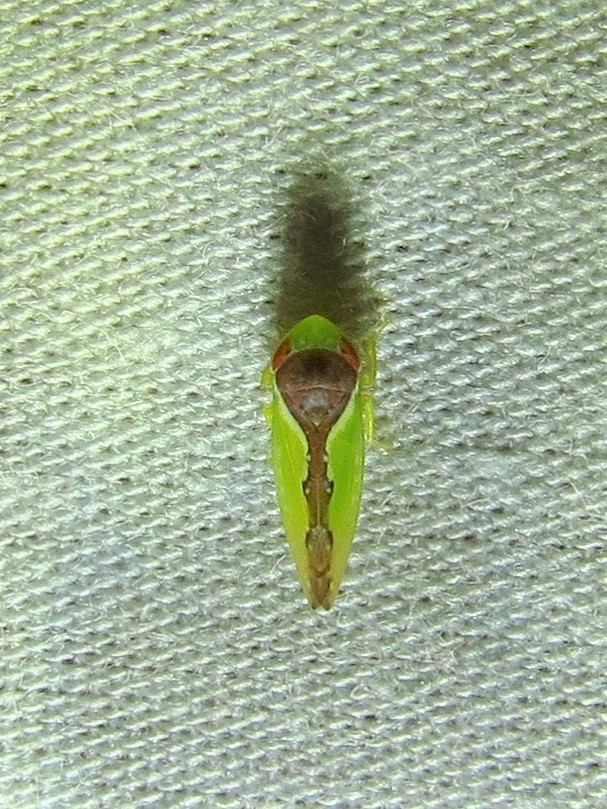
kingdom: Animalia
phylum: Arthropoda
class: Insecta
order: Hemiptera
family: Cicadellidae
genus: Omansobara ing
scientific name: Omansobara ing Omansobara palliolata
